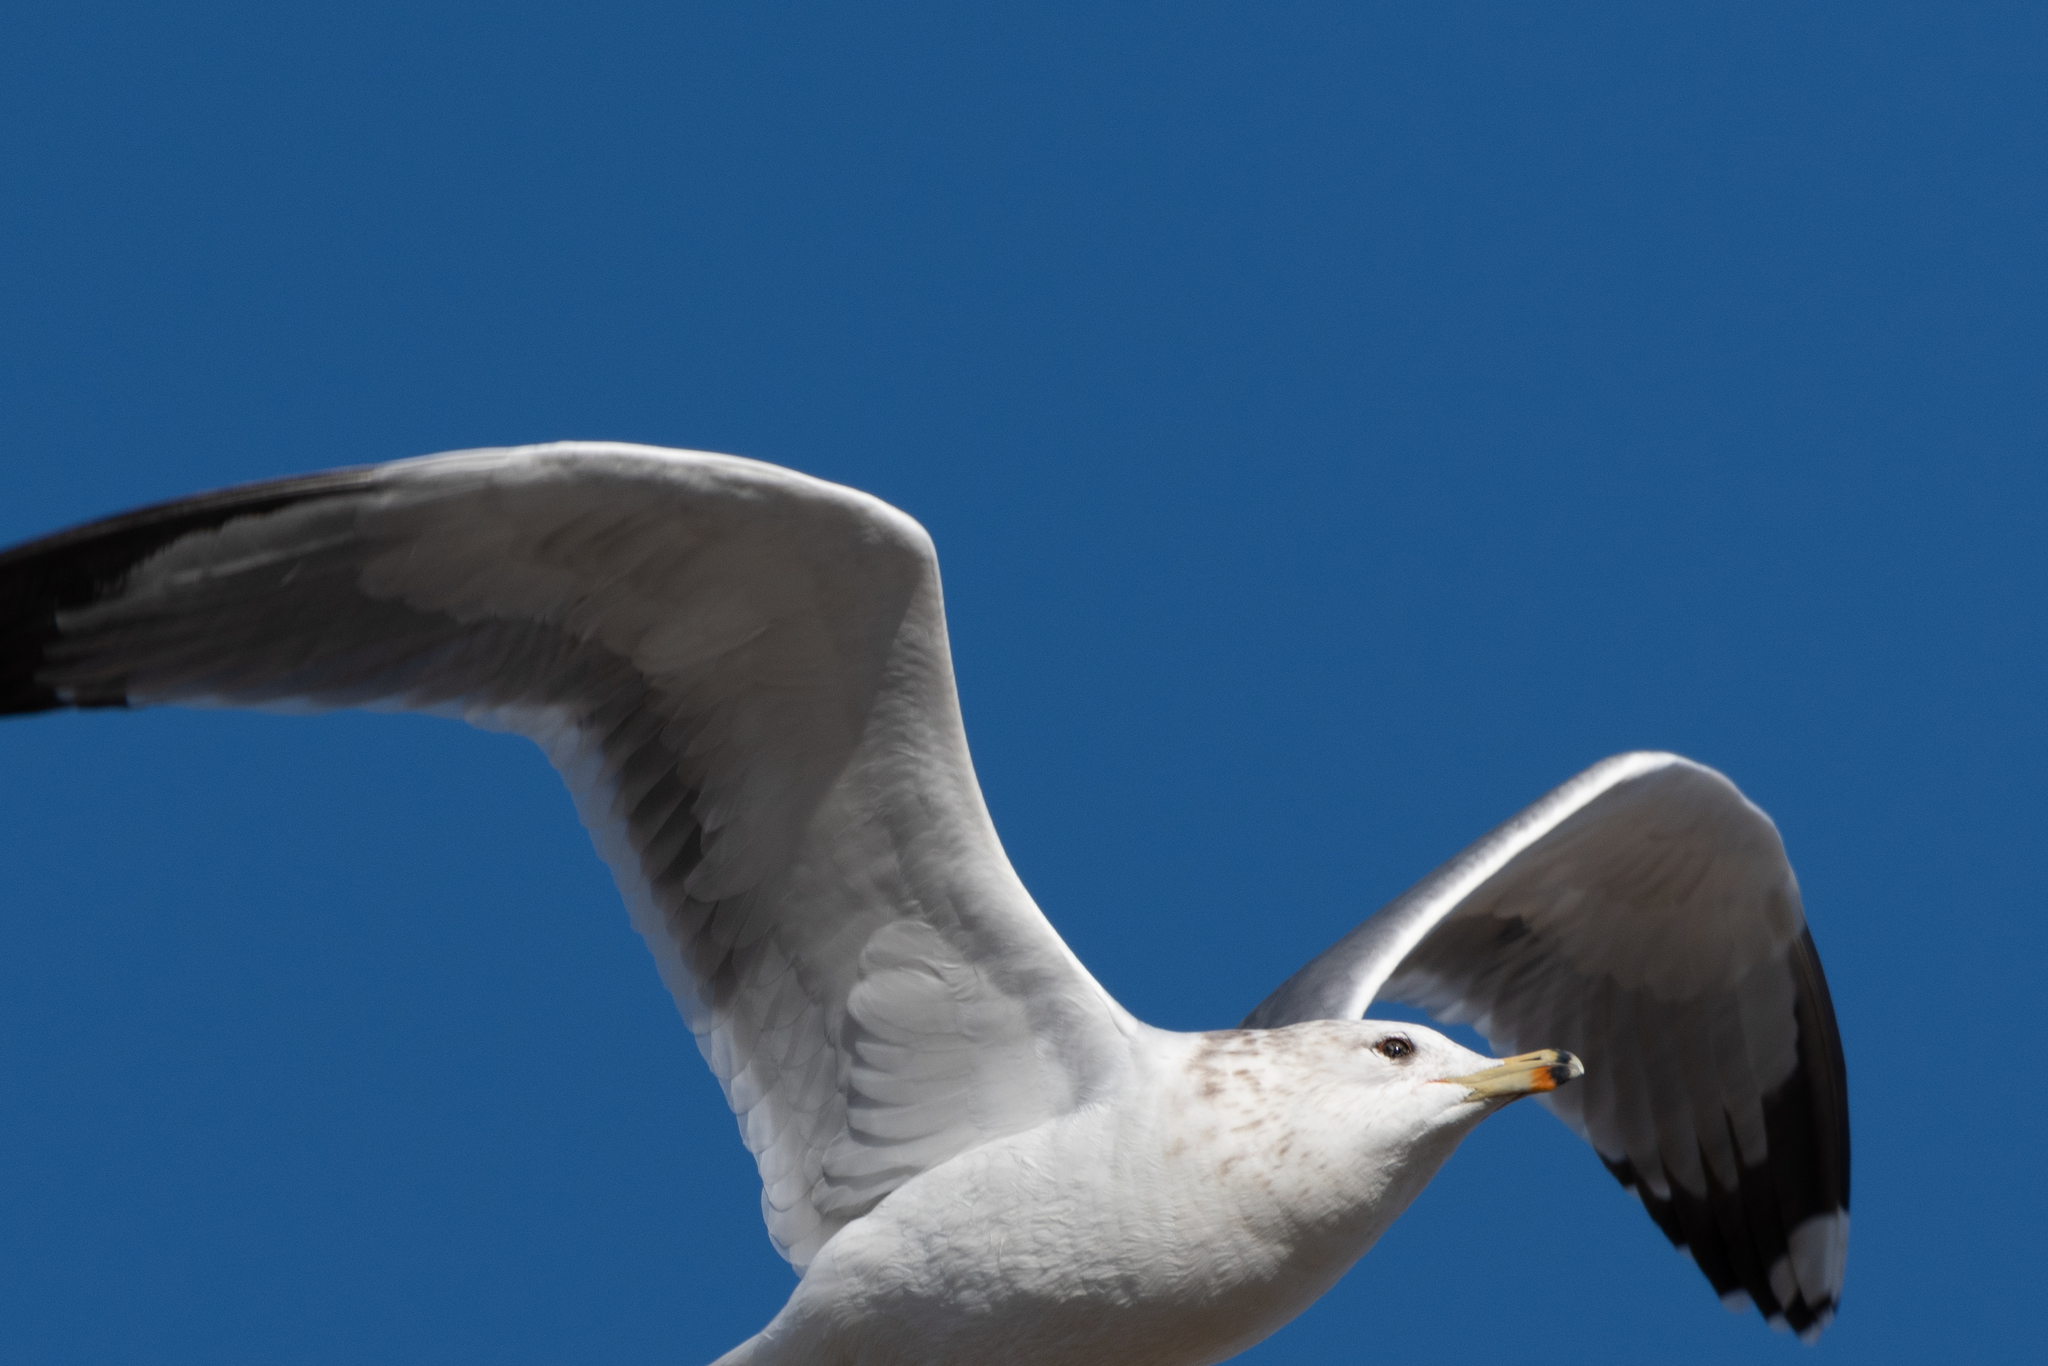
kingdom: Animalia
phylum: Chordata
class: Aves
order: Charadriiformes
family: Laridae
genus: Larus
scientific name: Larus californicus
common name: California gull
